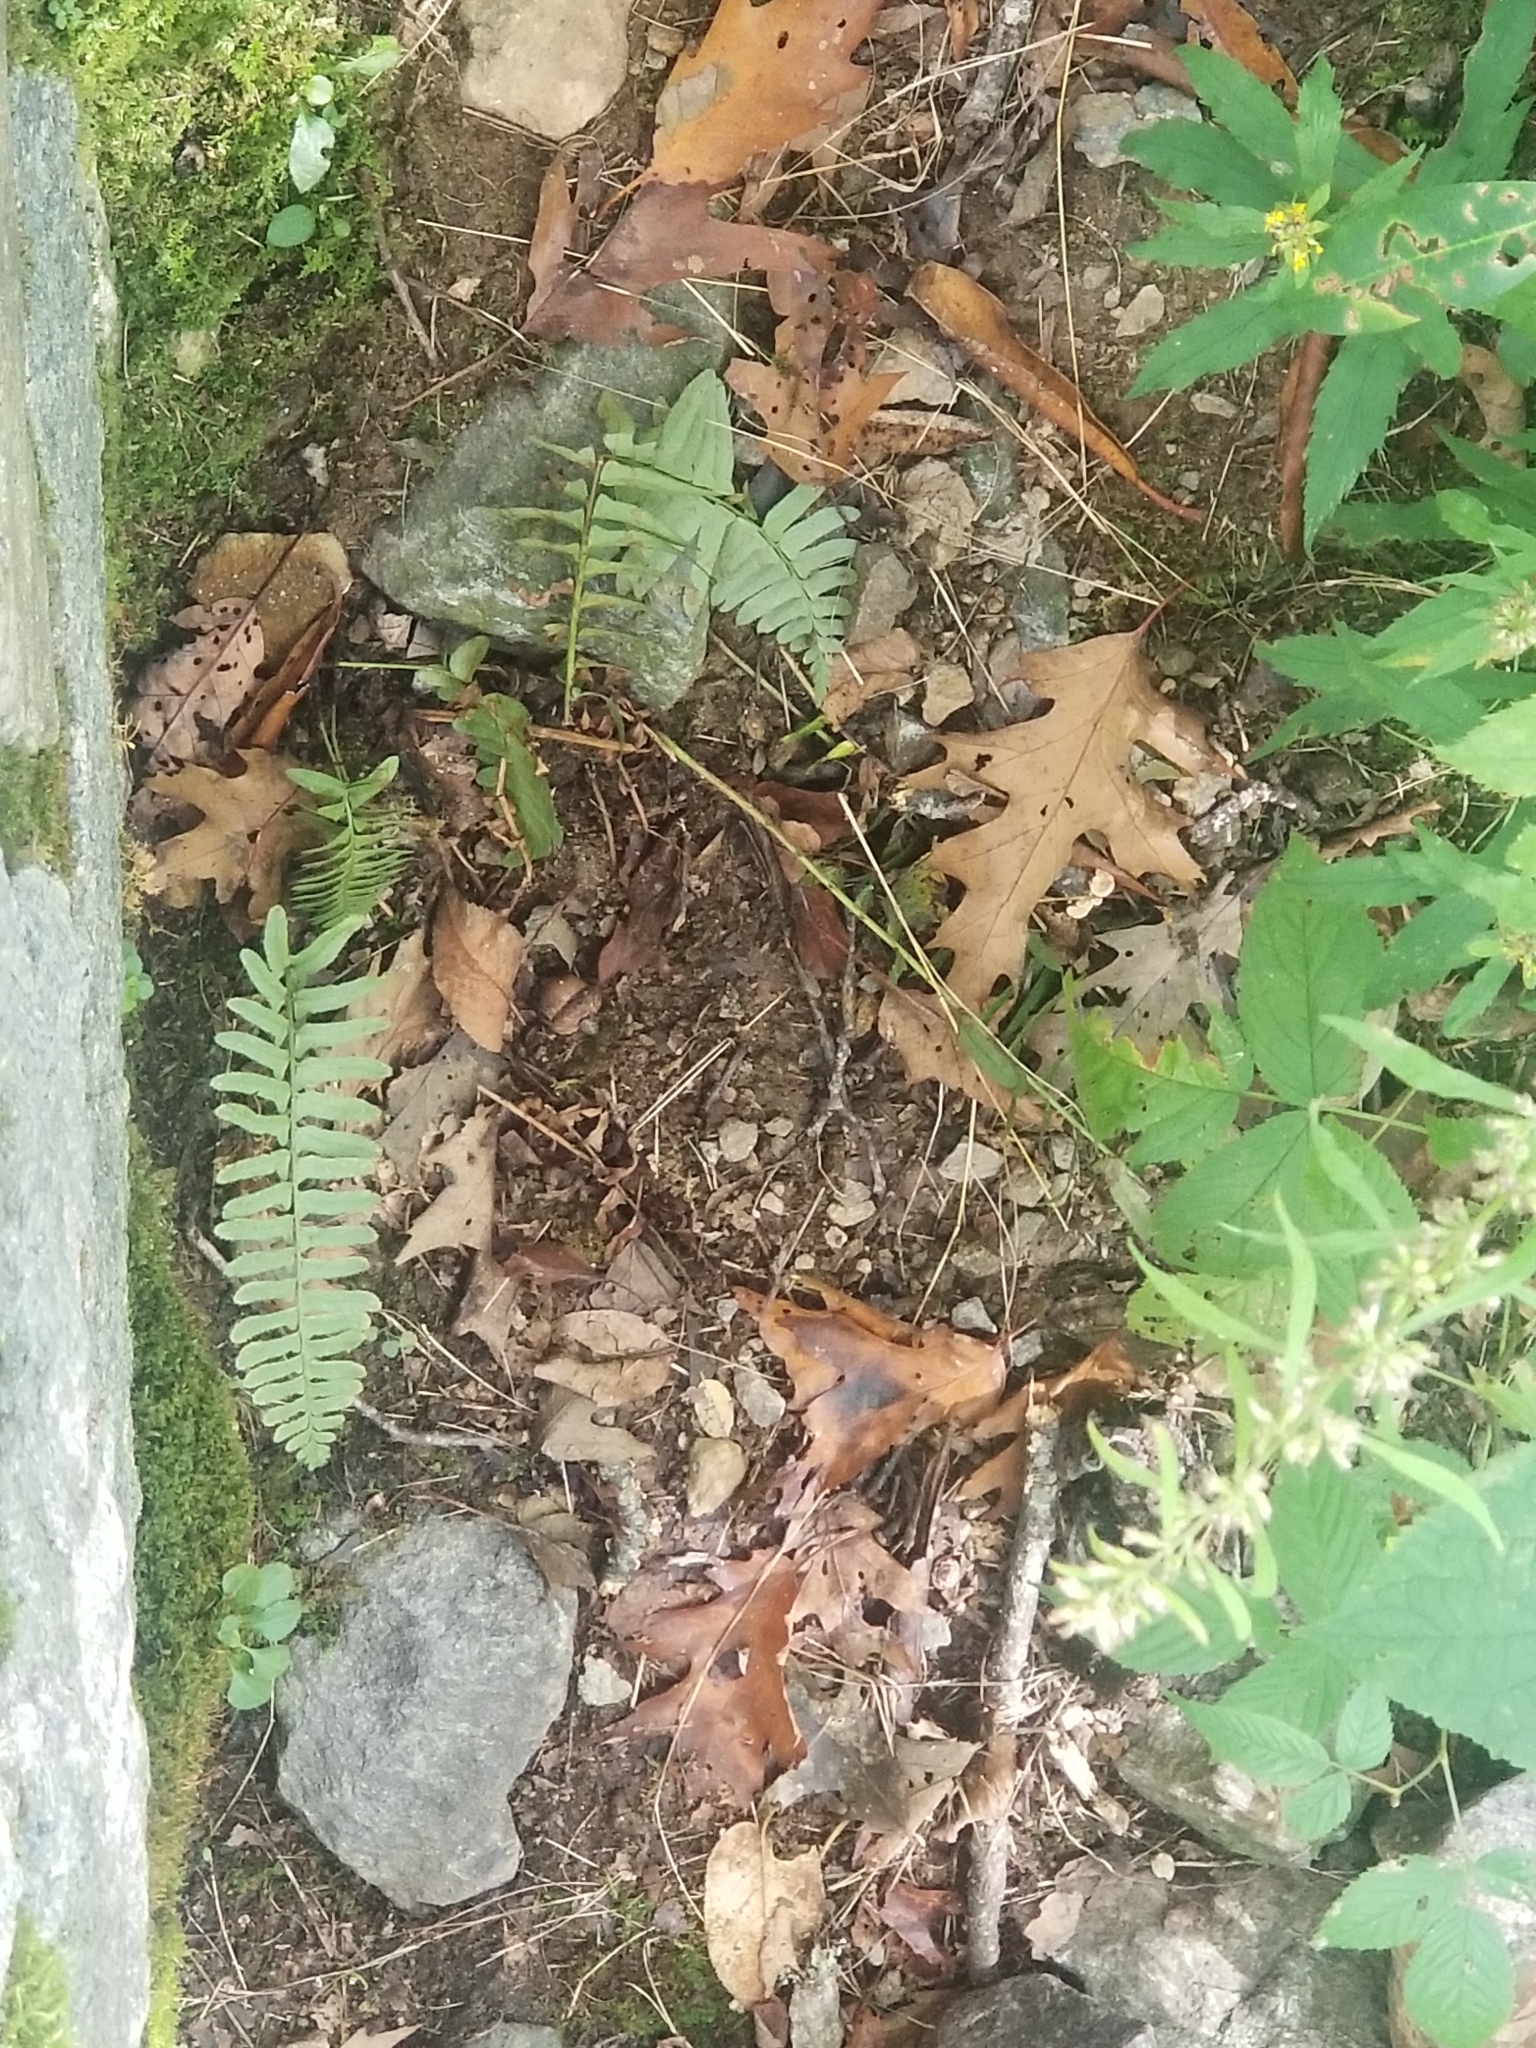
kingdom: Plantae
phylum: Tracheophyta
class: Polypodiopsida
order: Polypodiales
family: Dryopteridaceae
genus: Polystichum
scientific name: Polystichum acrostichoides
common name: Christmas fern
